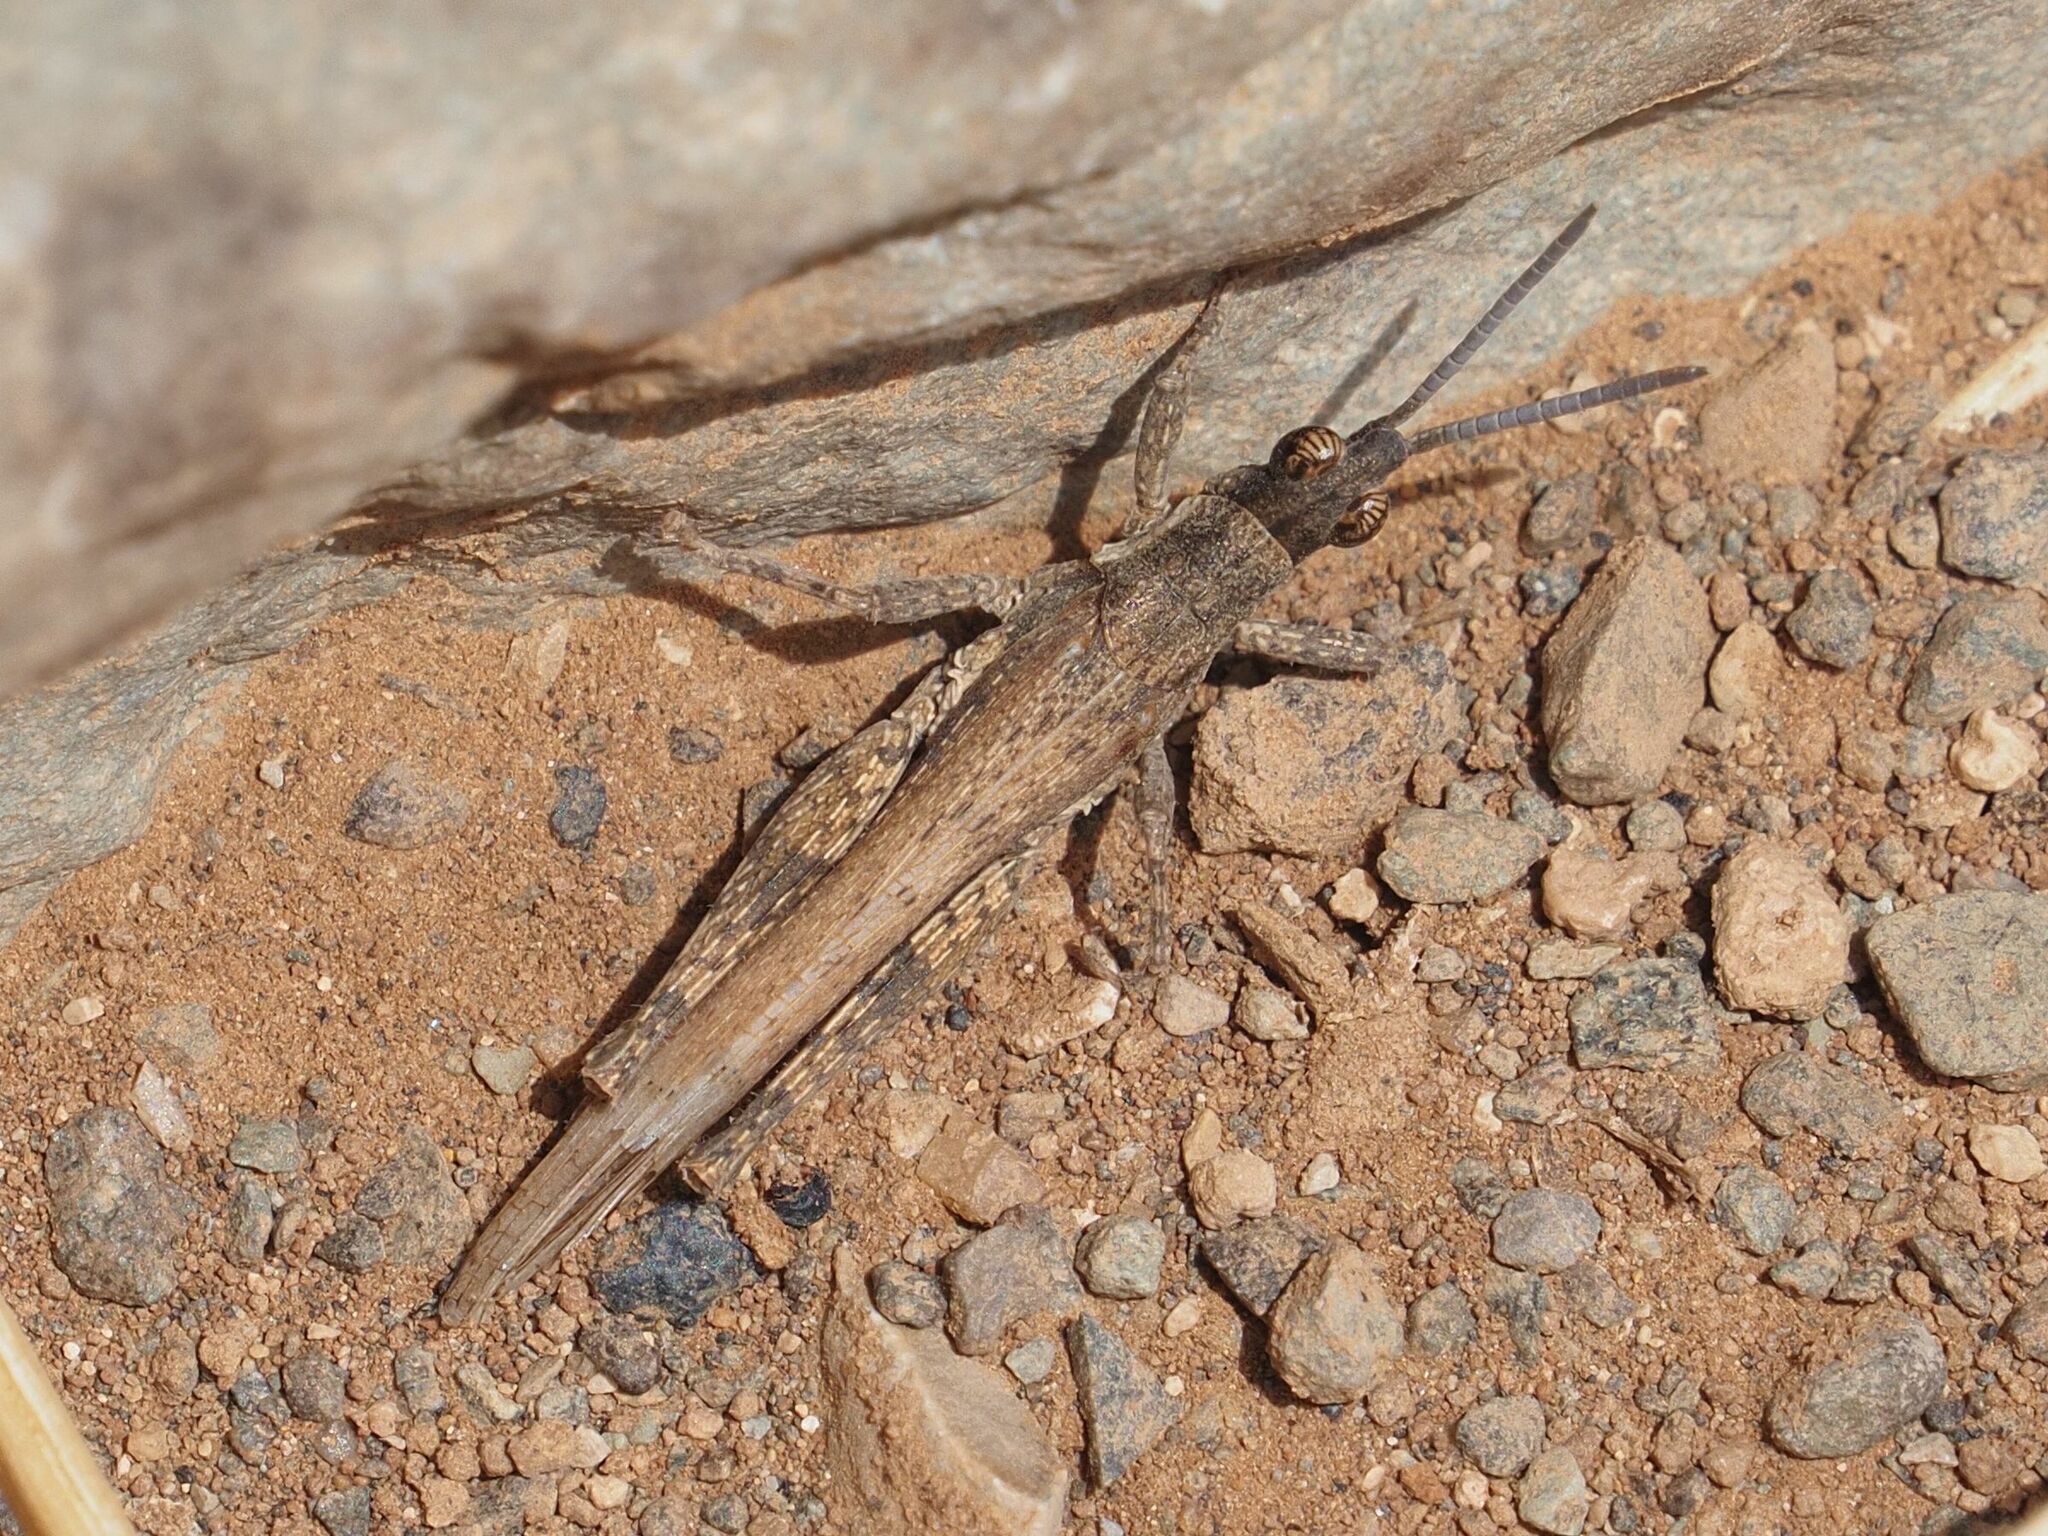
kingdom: Animalia
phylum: Arthropoda
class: Insecta
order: Orthoptera
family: Pyrgomorphidae
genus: Pyrgomorpha
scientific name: Pyrgomorpha conica
